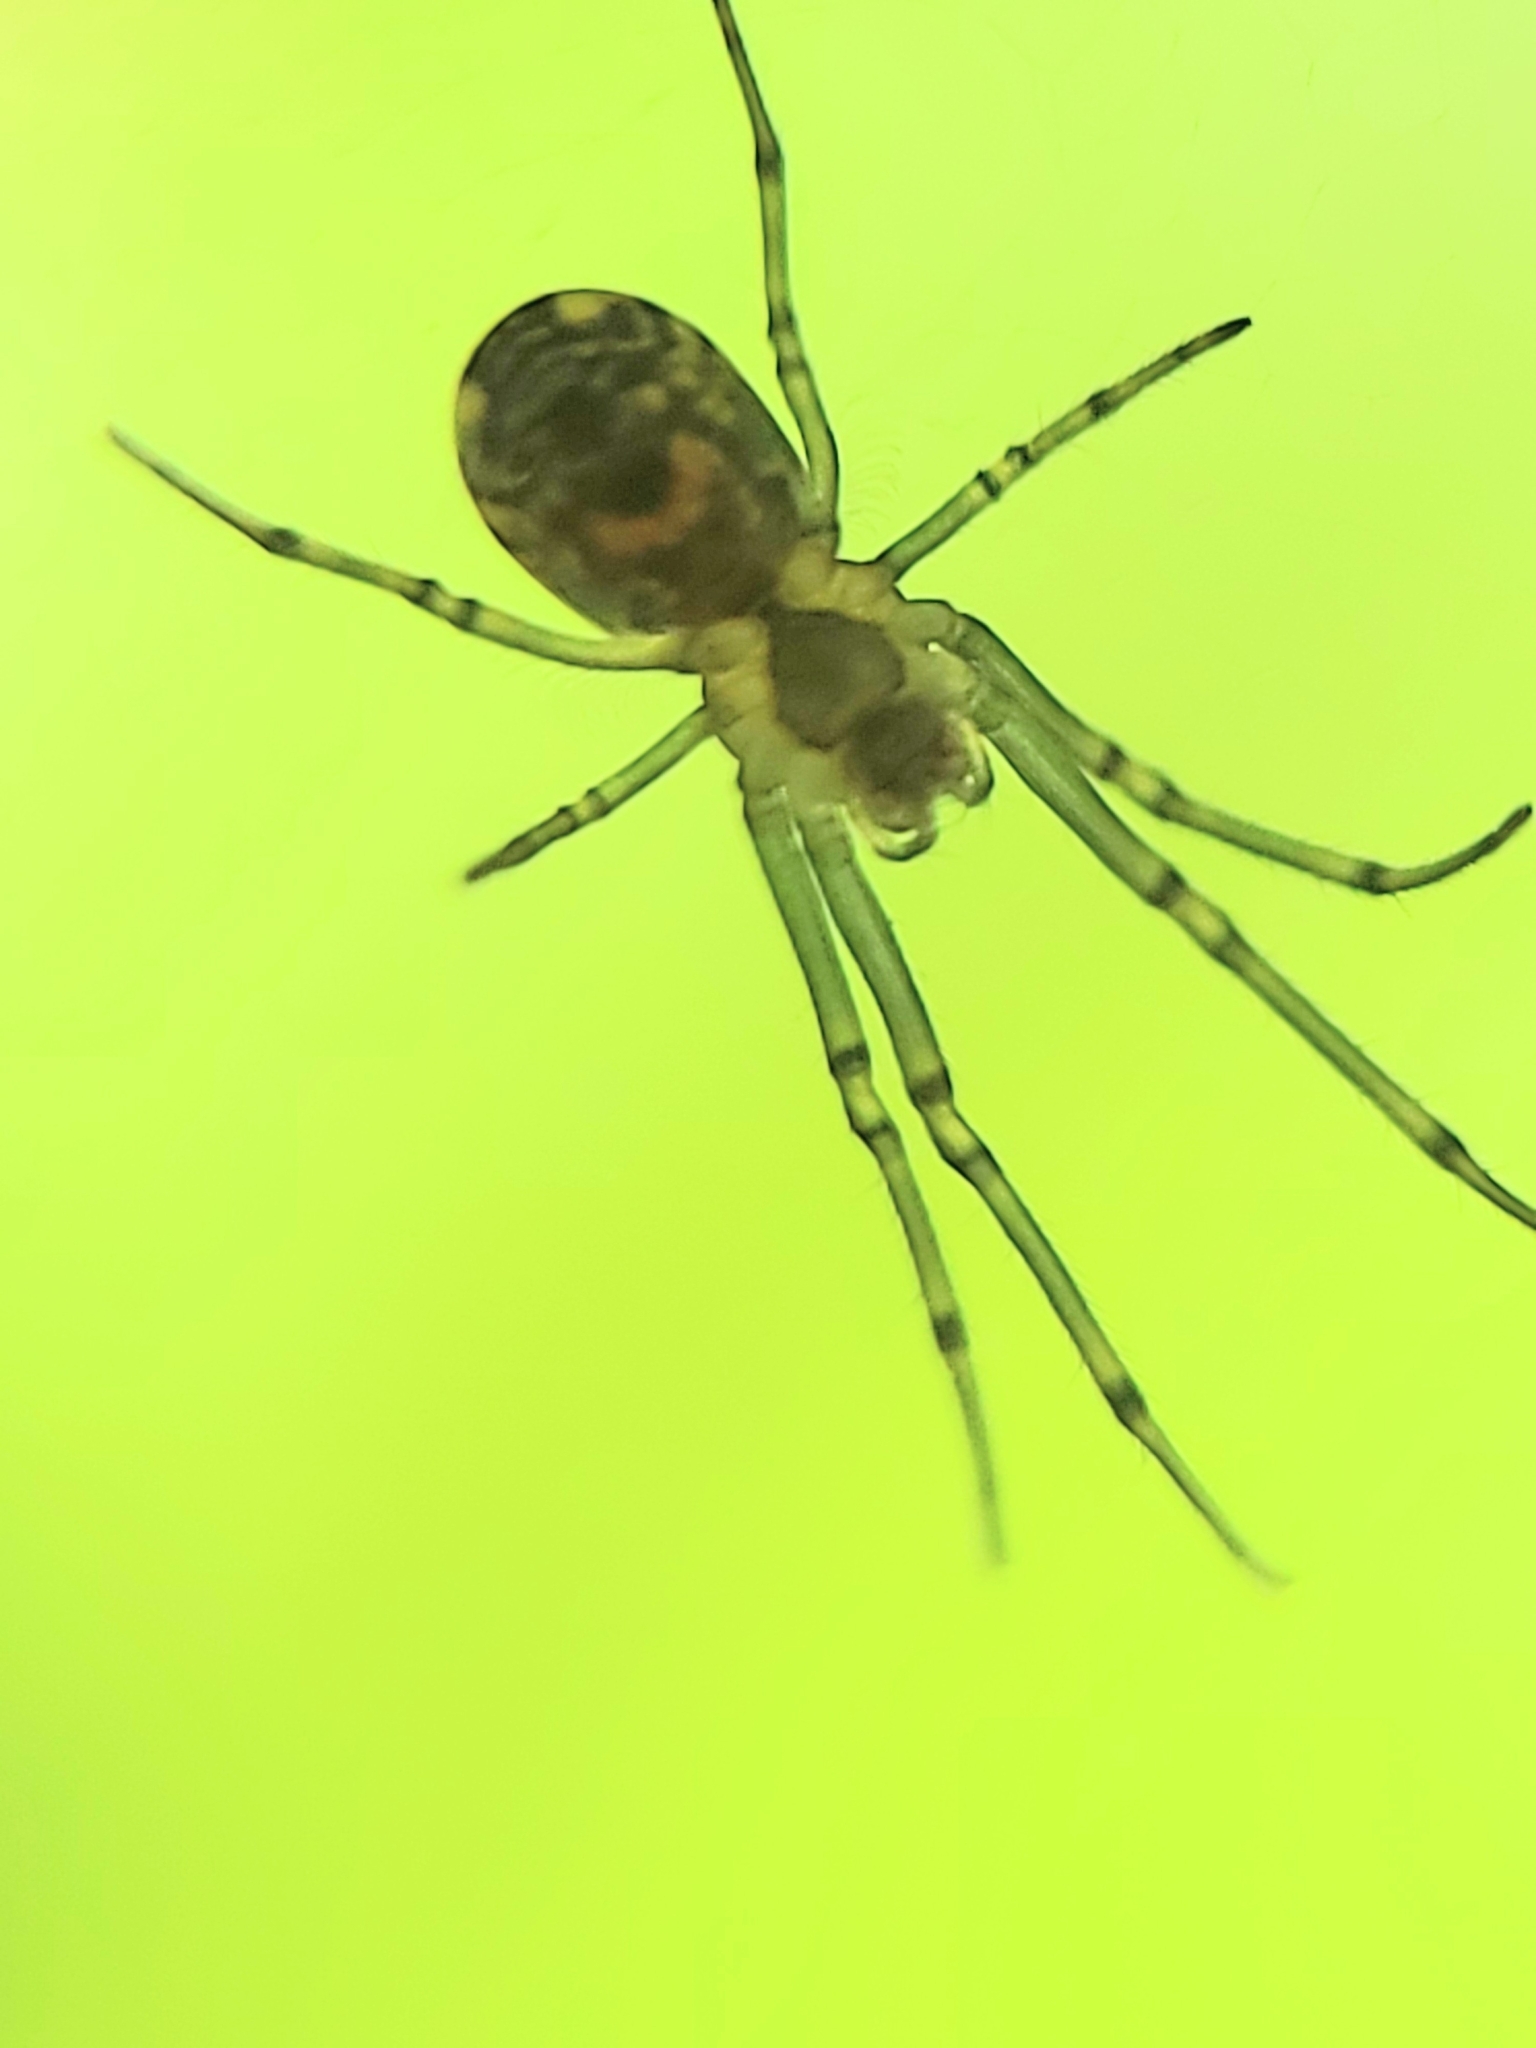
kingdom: Animalia
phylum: Arthropoda
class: Arachnida
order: Araneae
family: Tetragnathidae
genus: Leucauge
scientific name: Leucauge venusta
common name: Longjawed orb weavers
